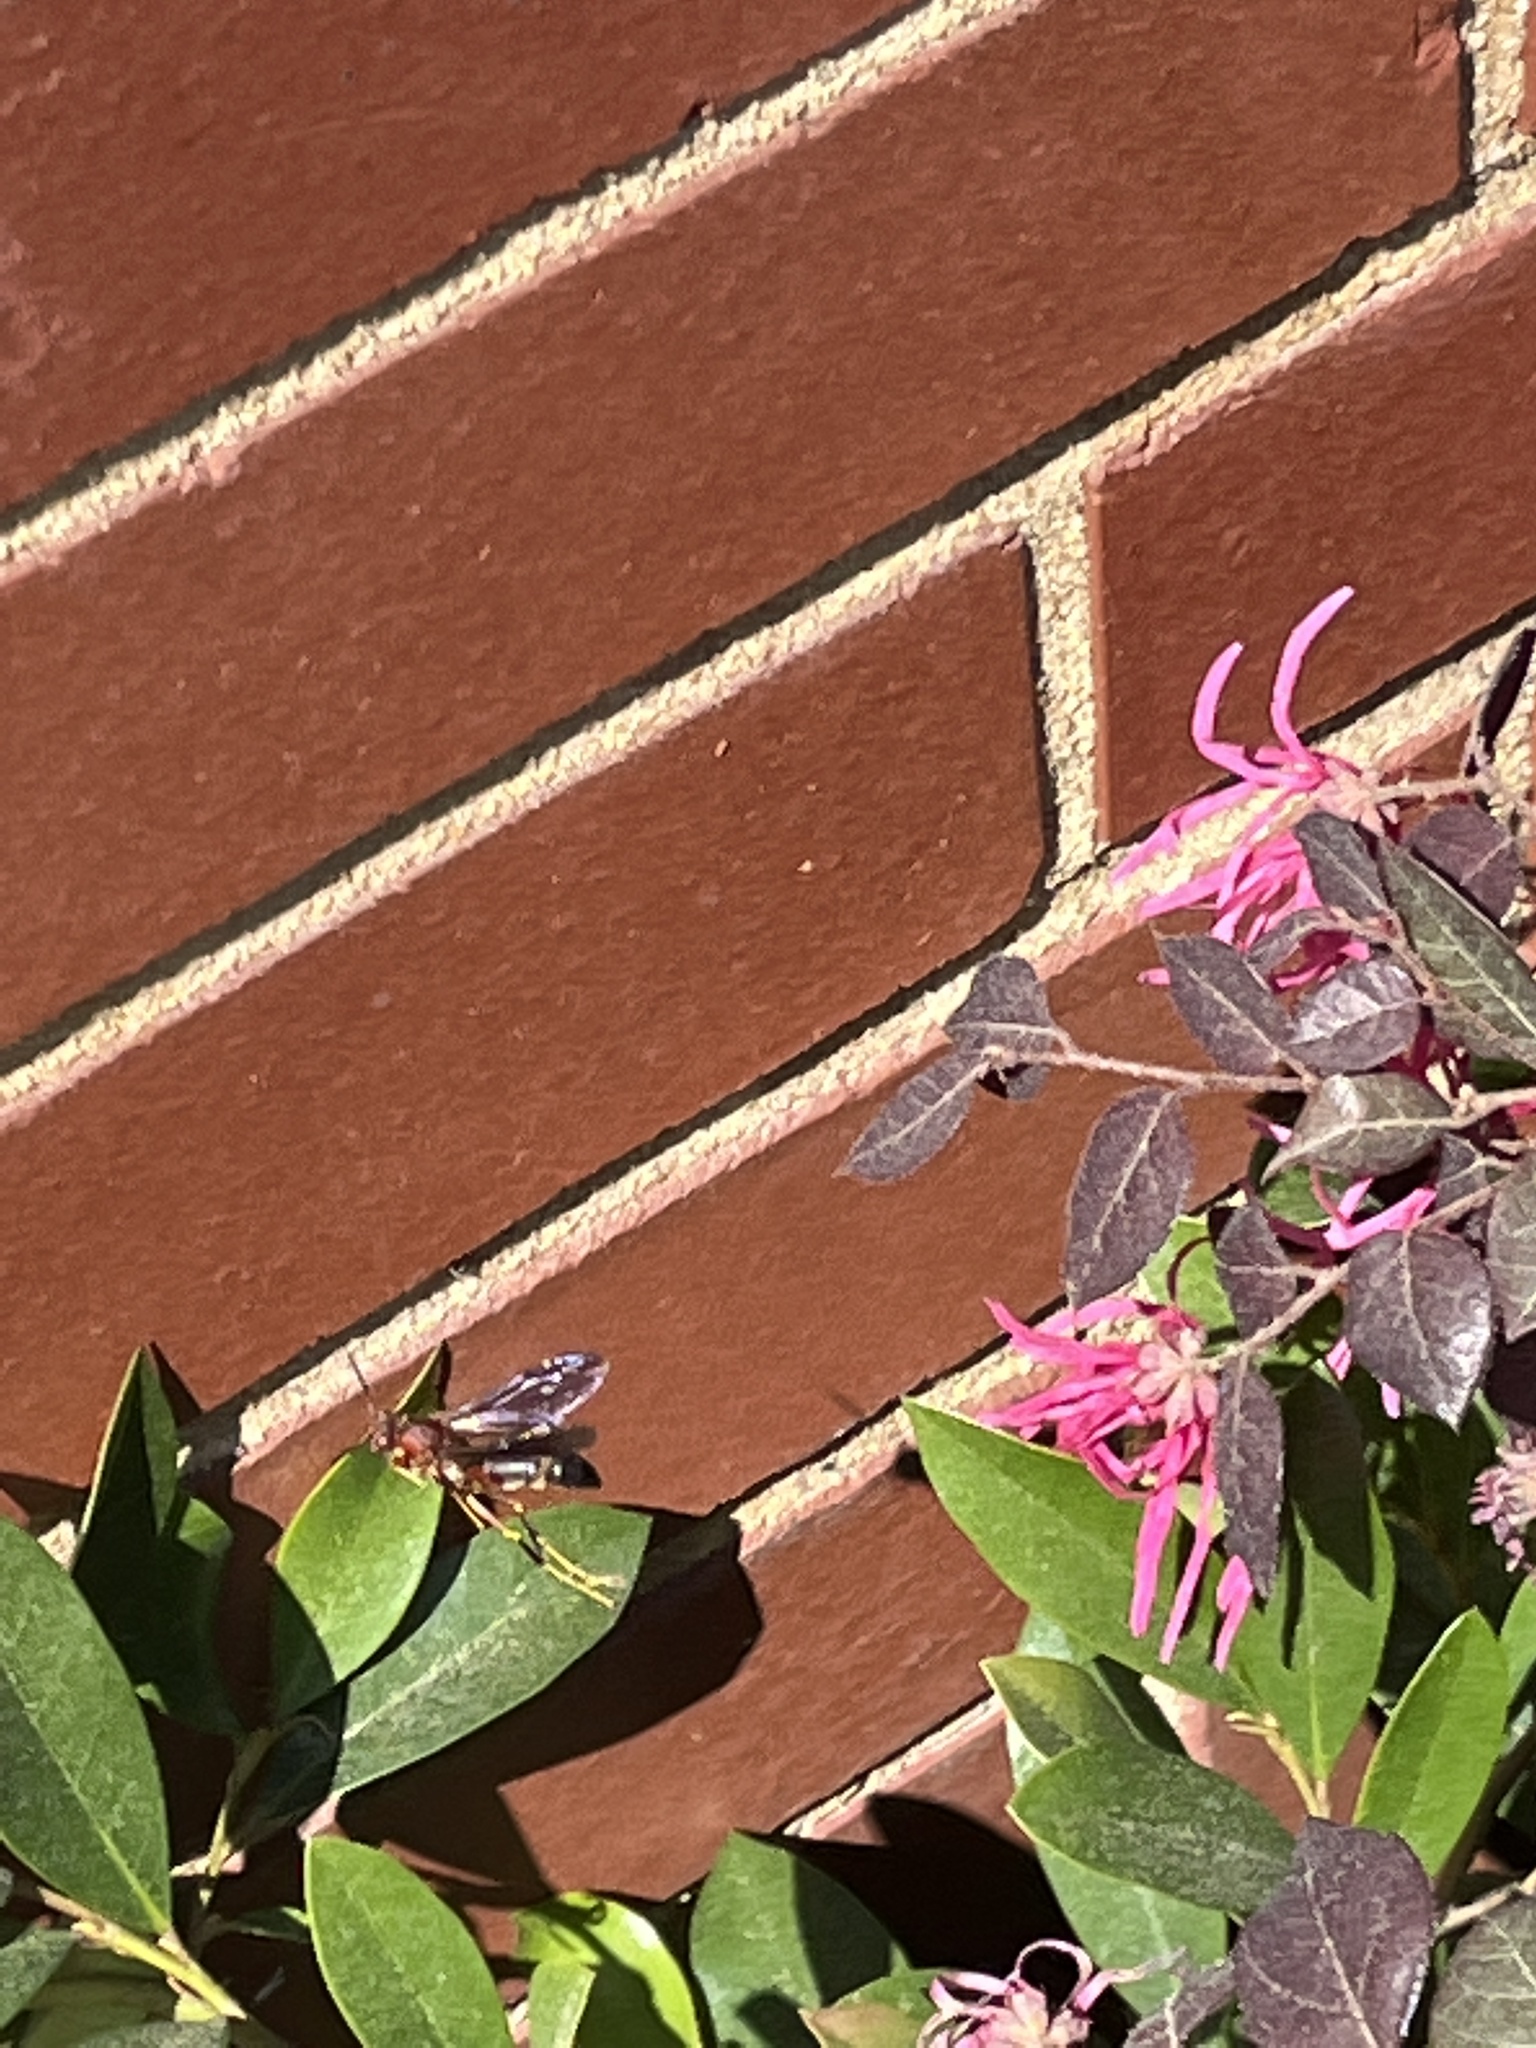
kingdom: Animalia
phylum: Arthropoda
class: Insecta
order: Hymenoptera
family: Eumenidae
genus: Polistes
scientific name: Polistes metricus
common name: Metric paper wasp
